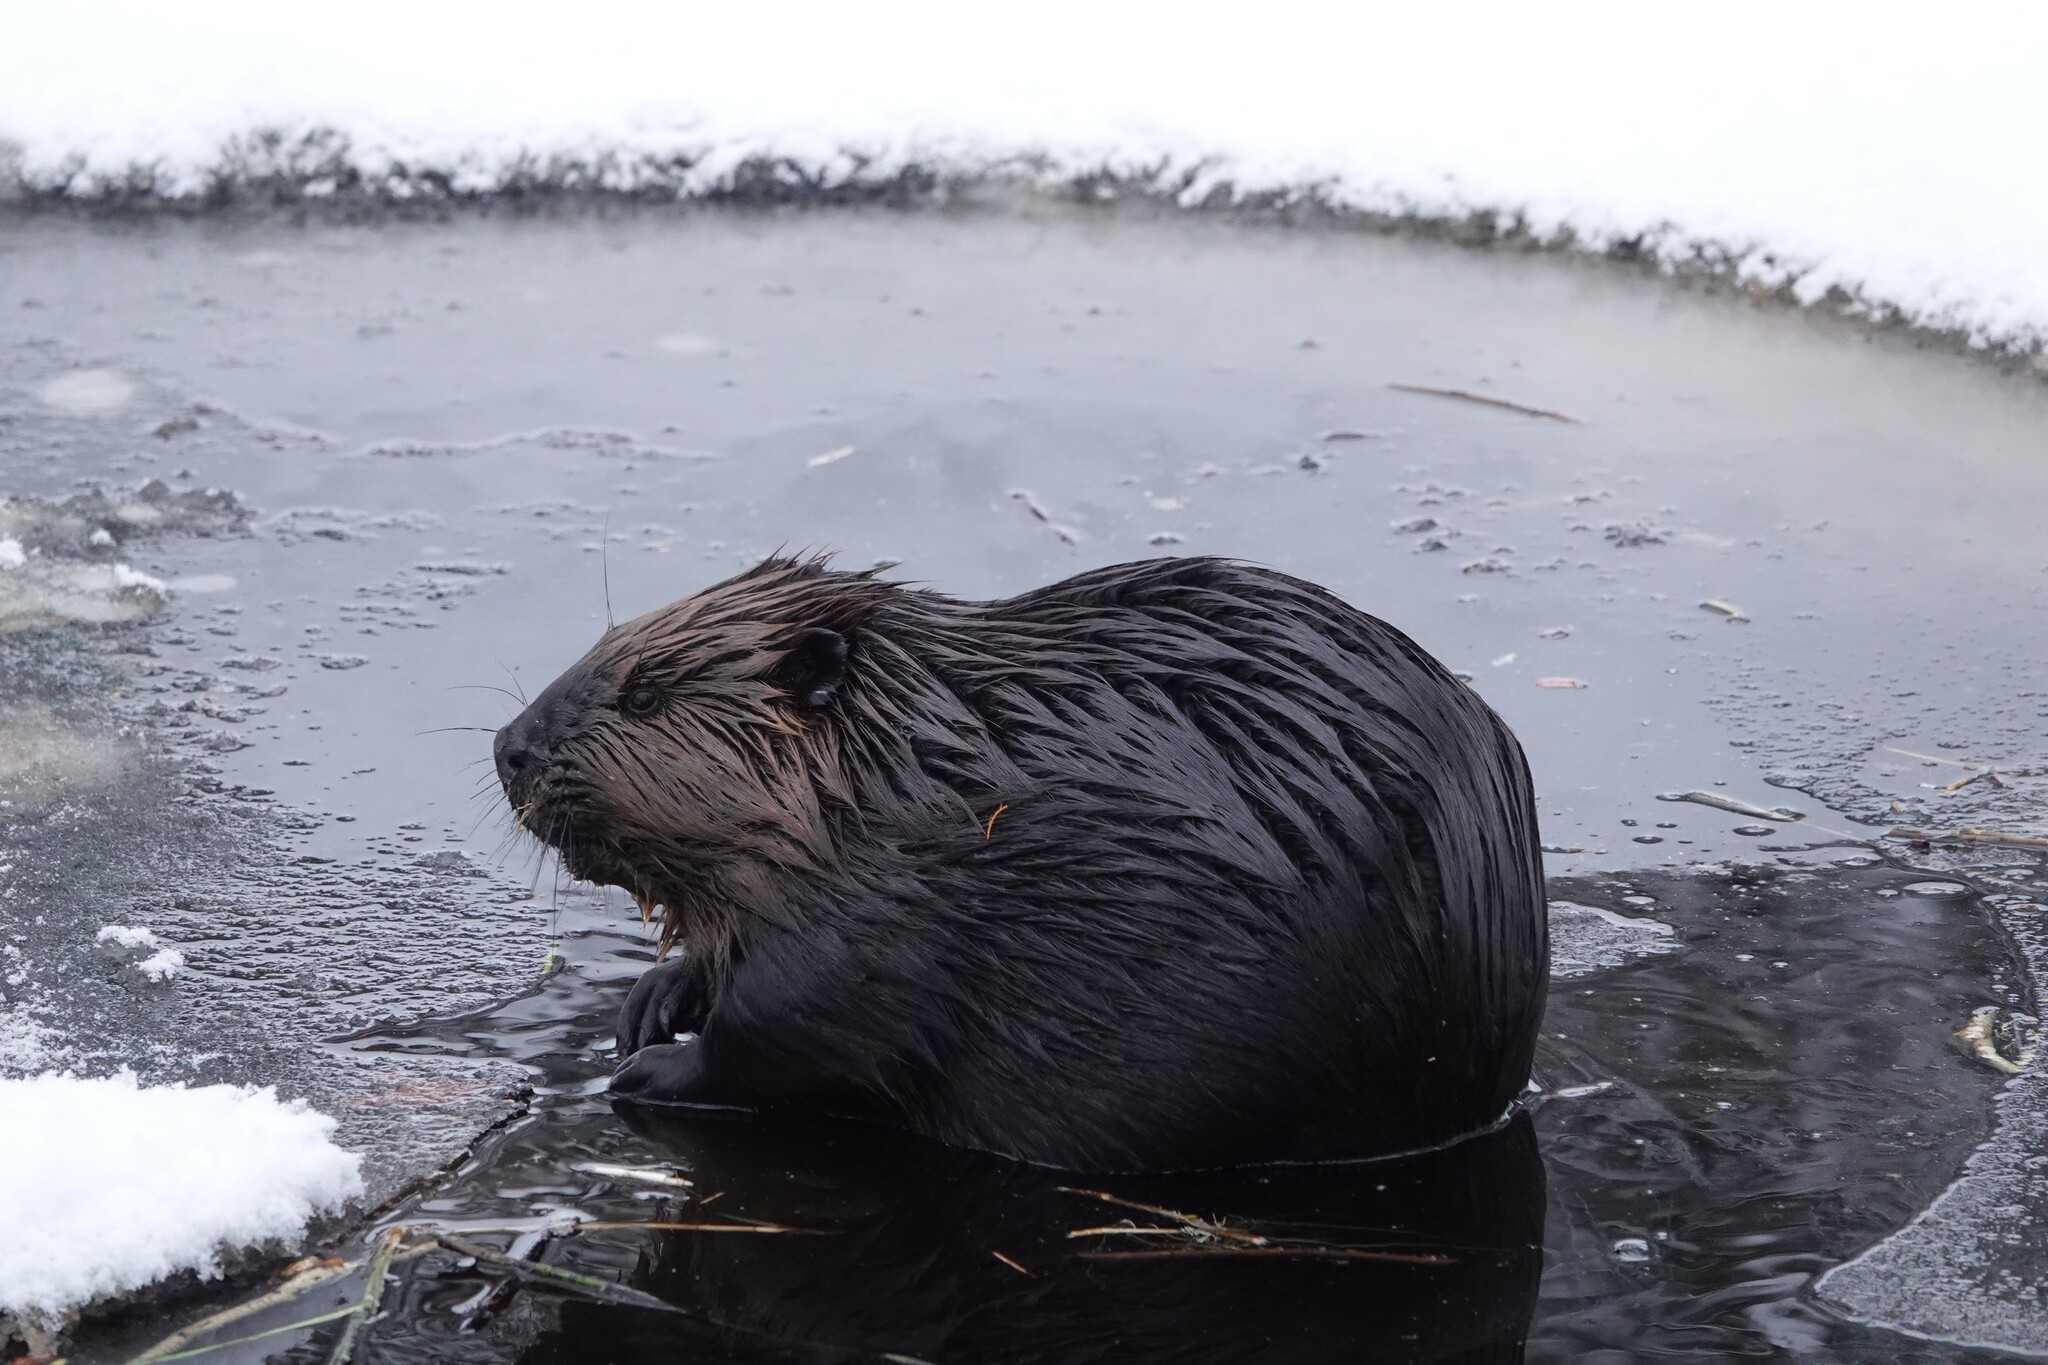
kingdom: Animalia
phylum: Chordata
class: Mammalia
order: Rodentia
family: Castoridae
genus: Castor
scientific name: Castor canadensis
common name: American beaver
